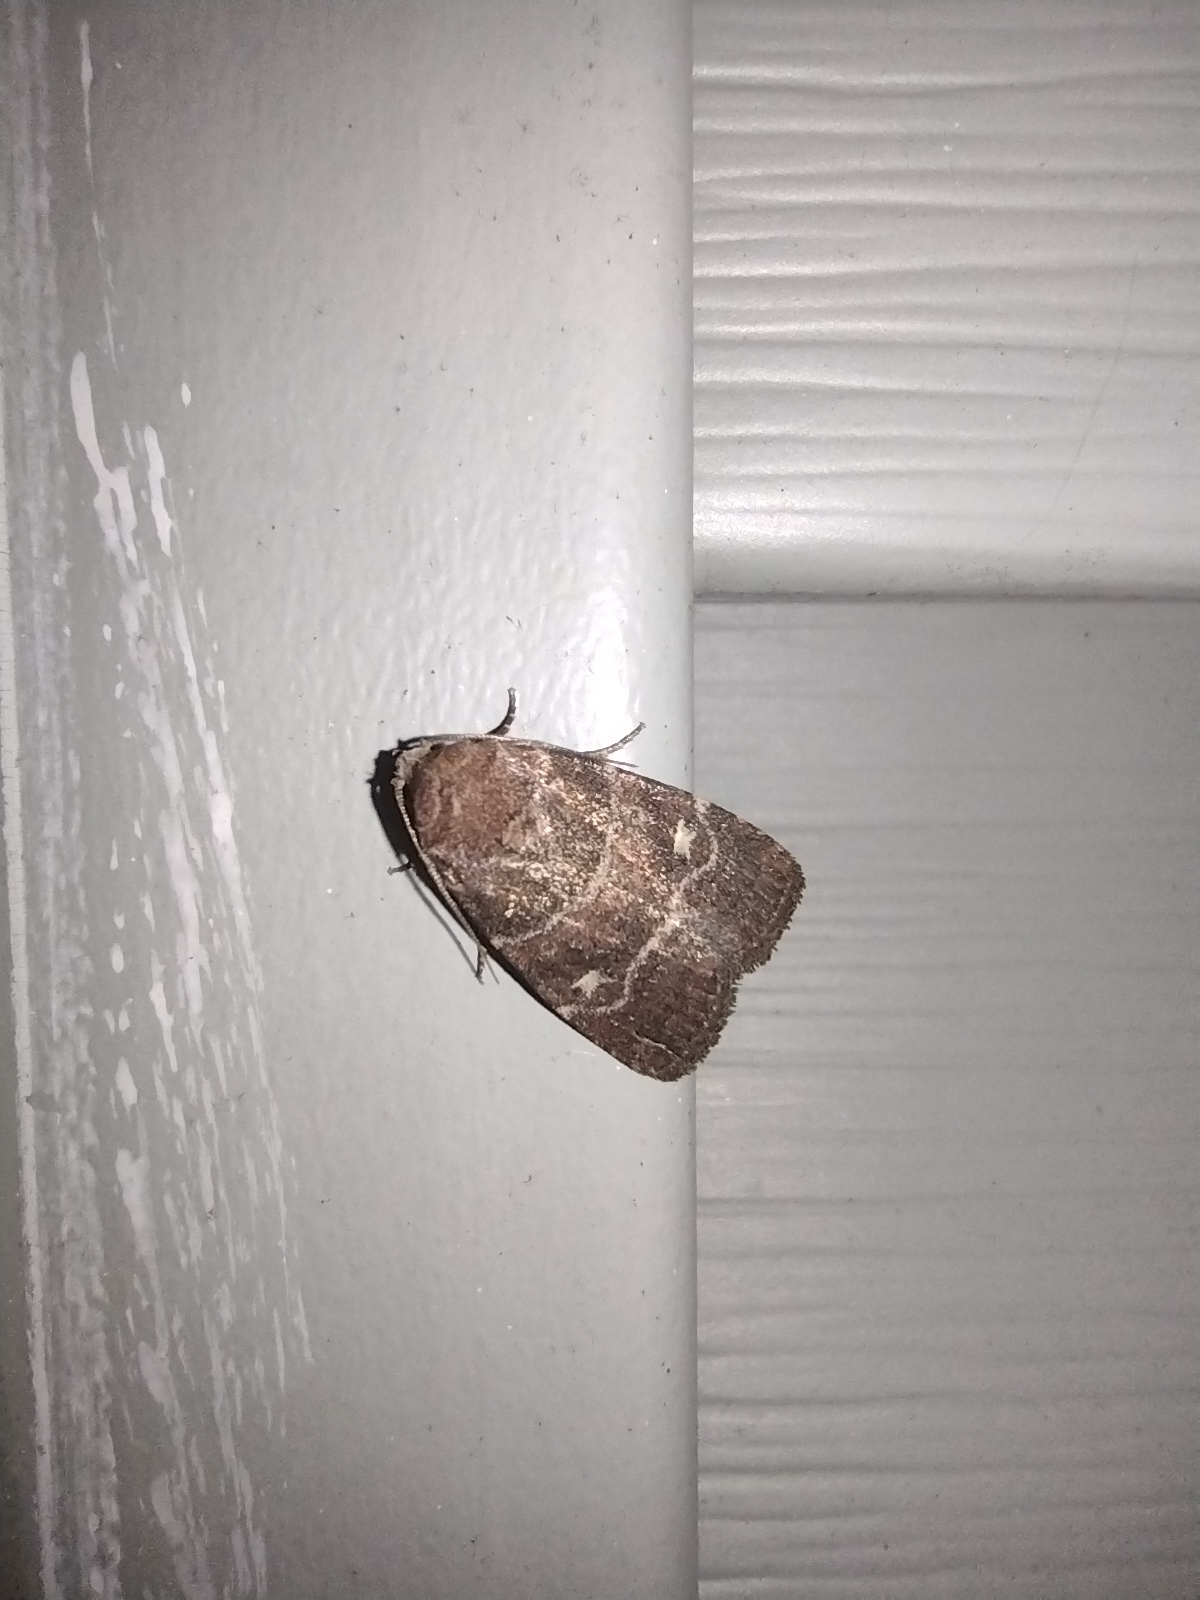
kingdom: Animalia
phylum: Arthropoda
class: Insecta
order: Lepidoptera
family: Noctuidae
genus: Elaphria
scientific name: Elaphria grata
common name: Grateful midget moth
